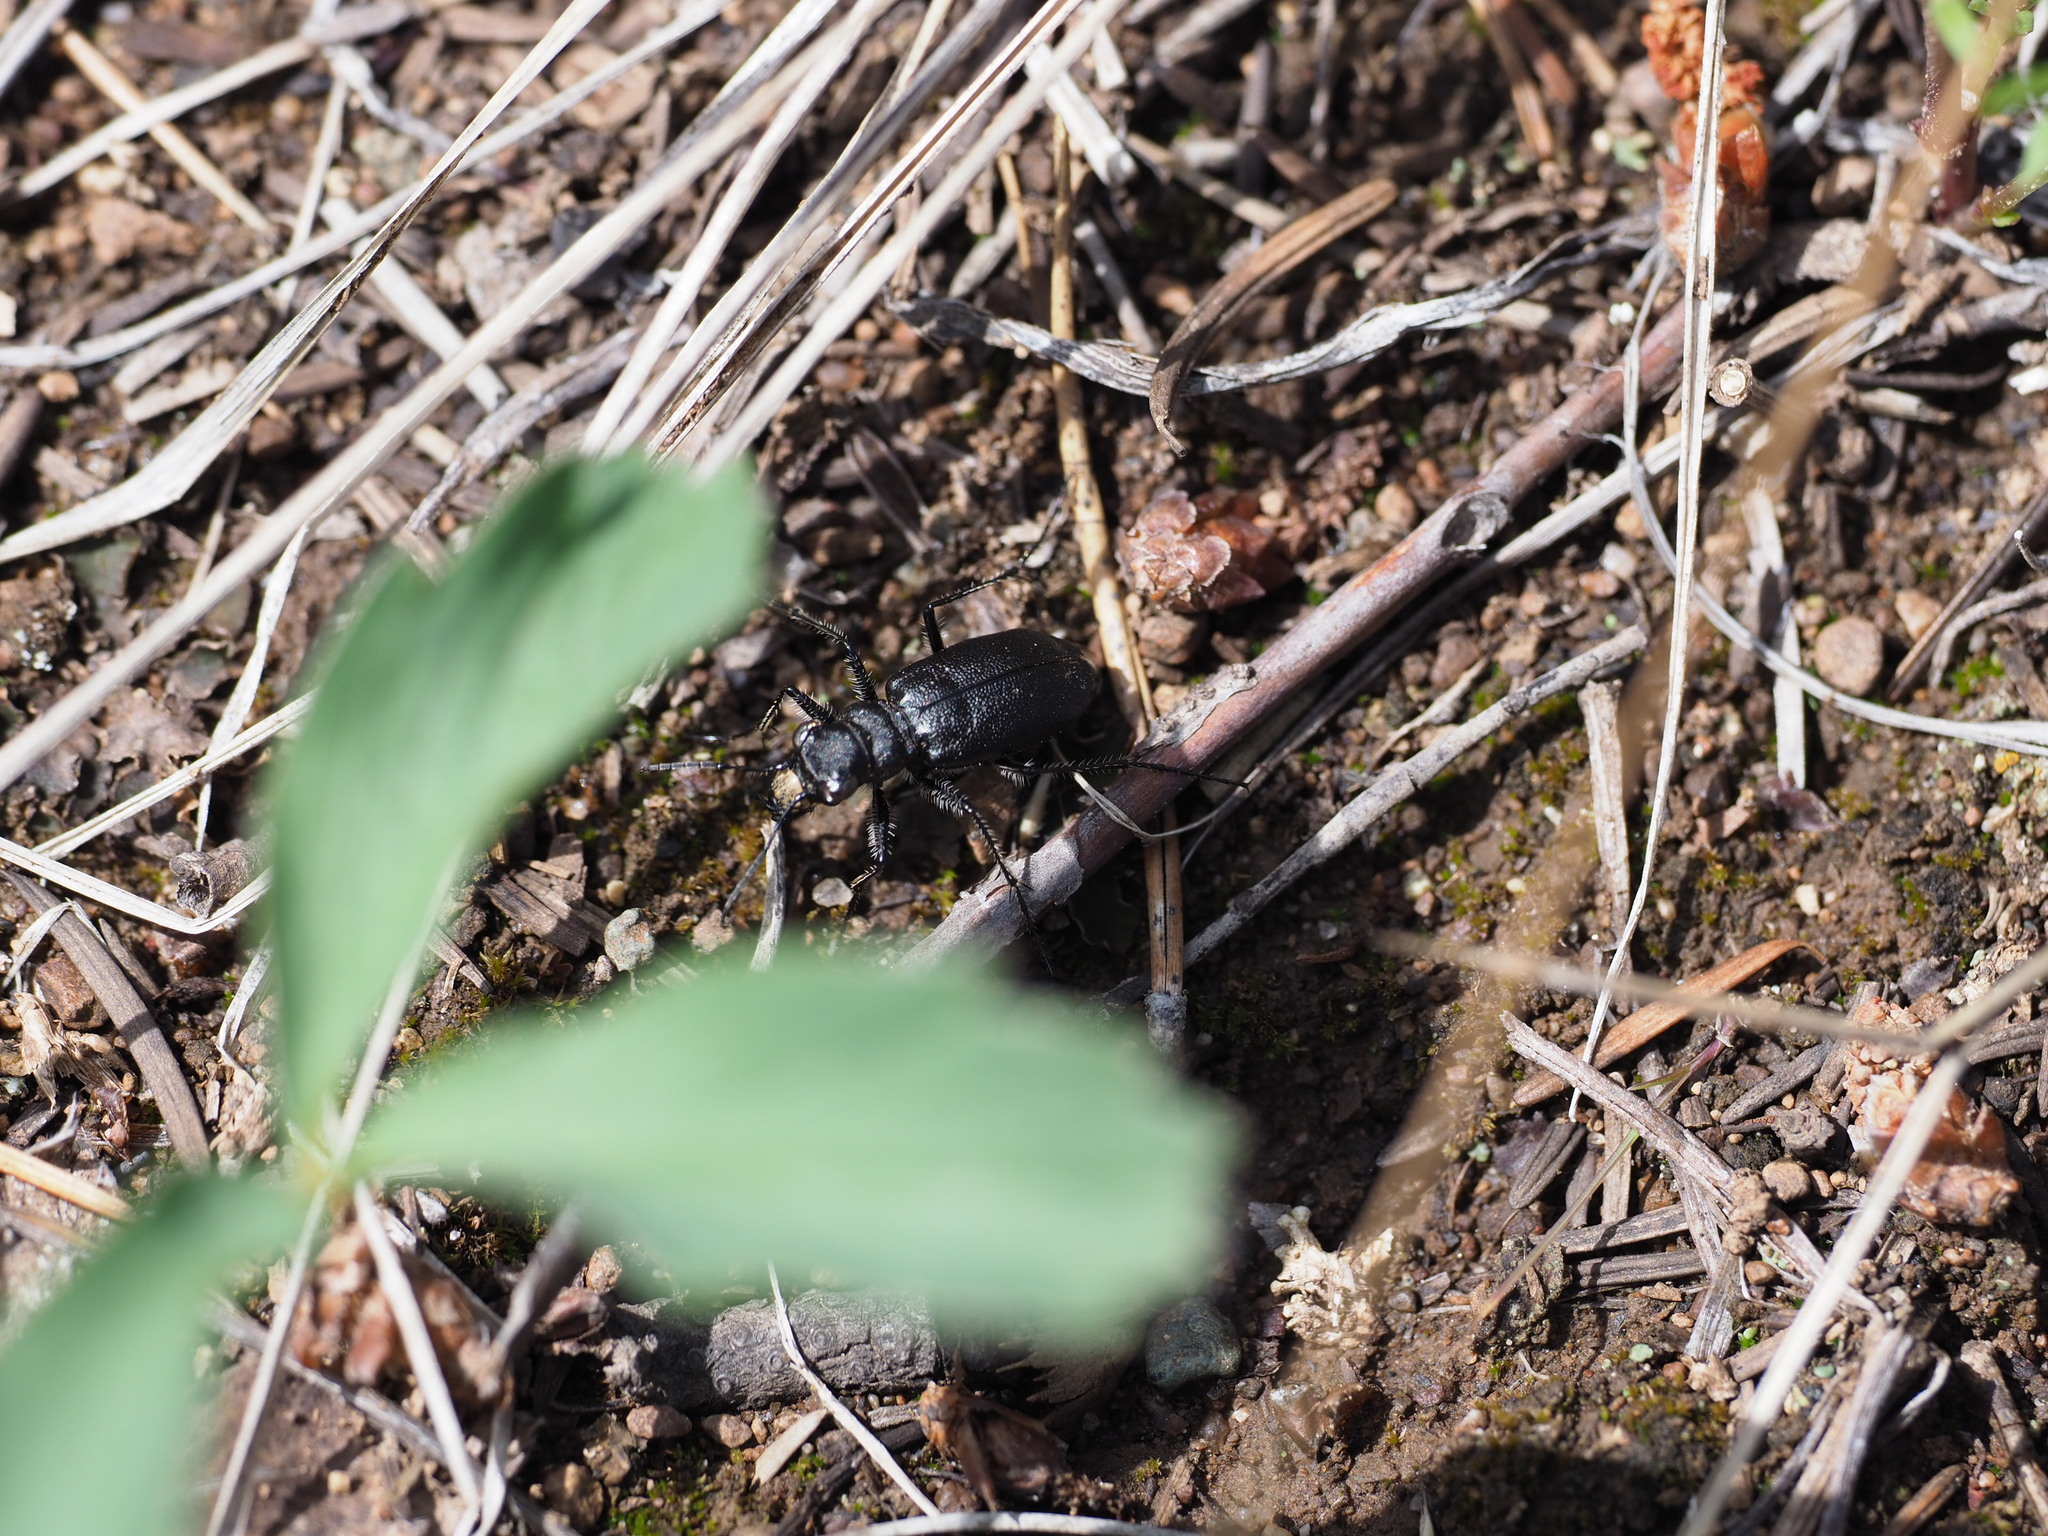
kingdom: Animalia
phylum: Arthropoda
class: Insecta
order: Coleoptera
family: Carabidae
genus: Cicindela
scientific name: Cicindela longilabris
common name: Boreal long-lipped tiger beetle
